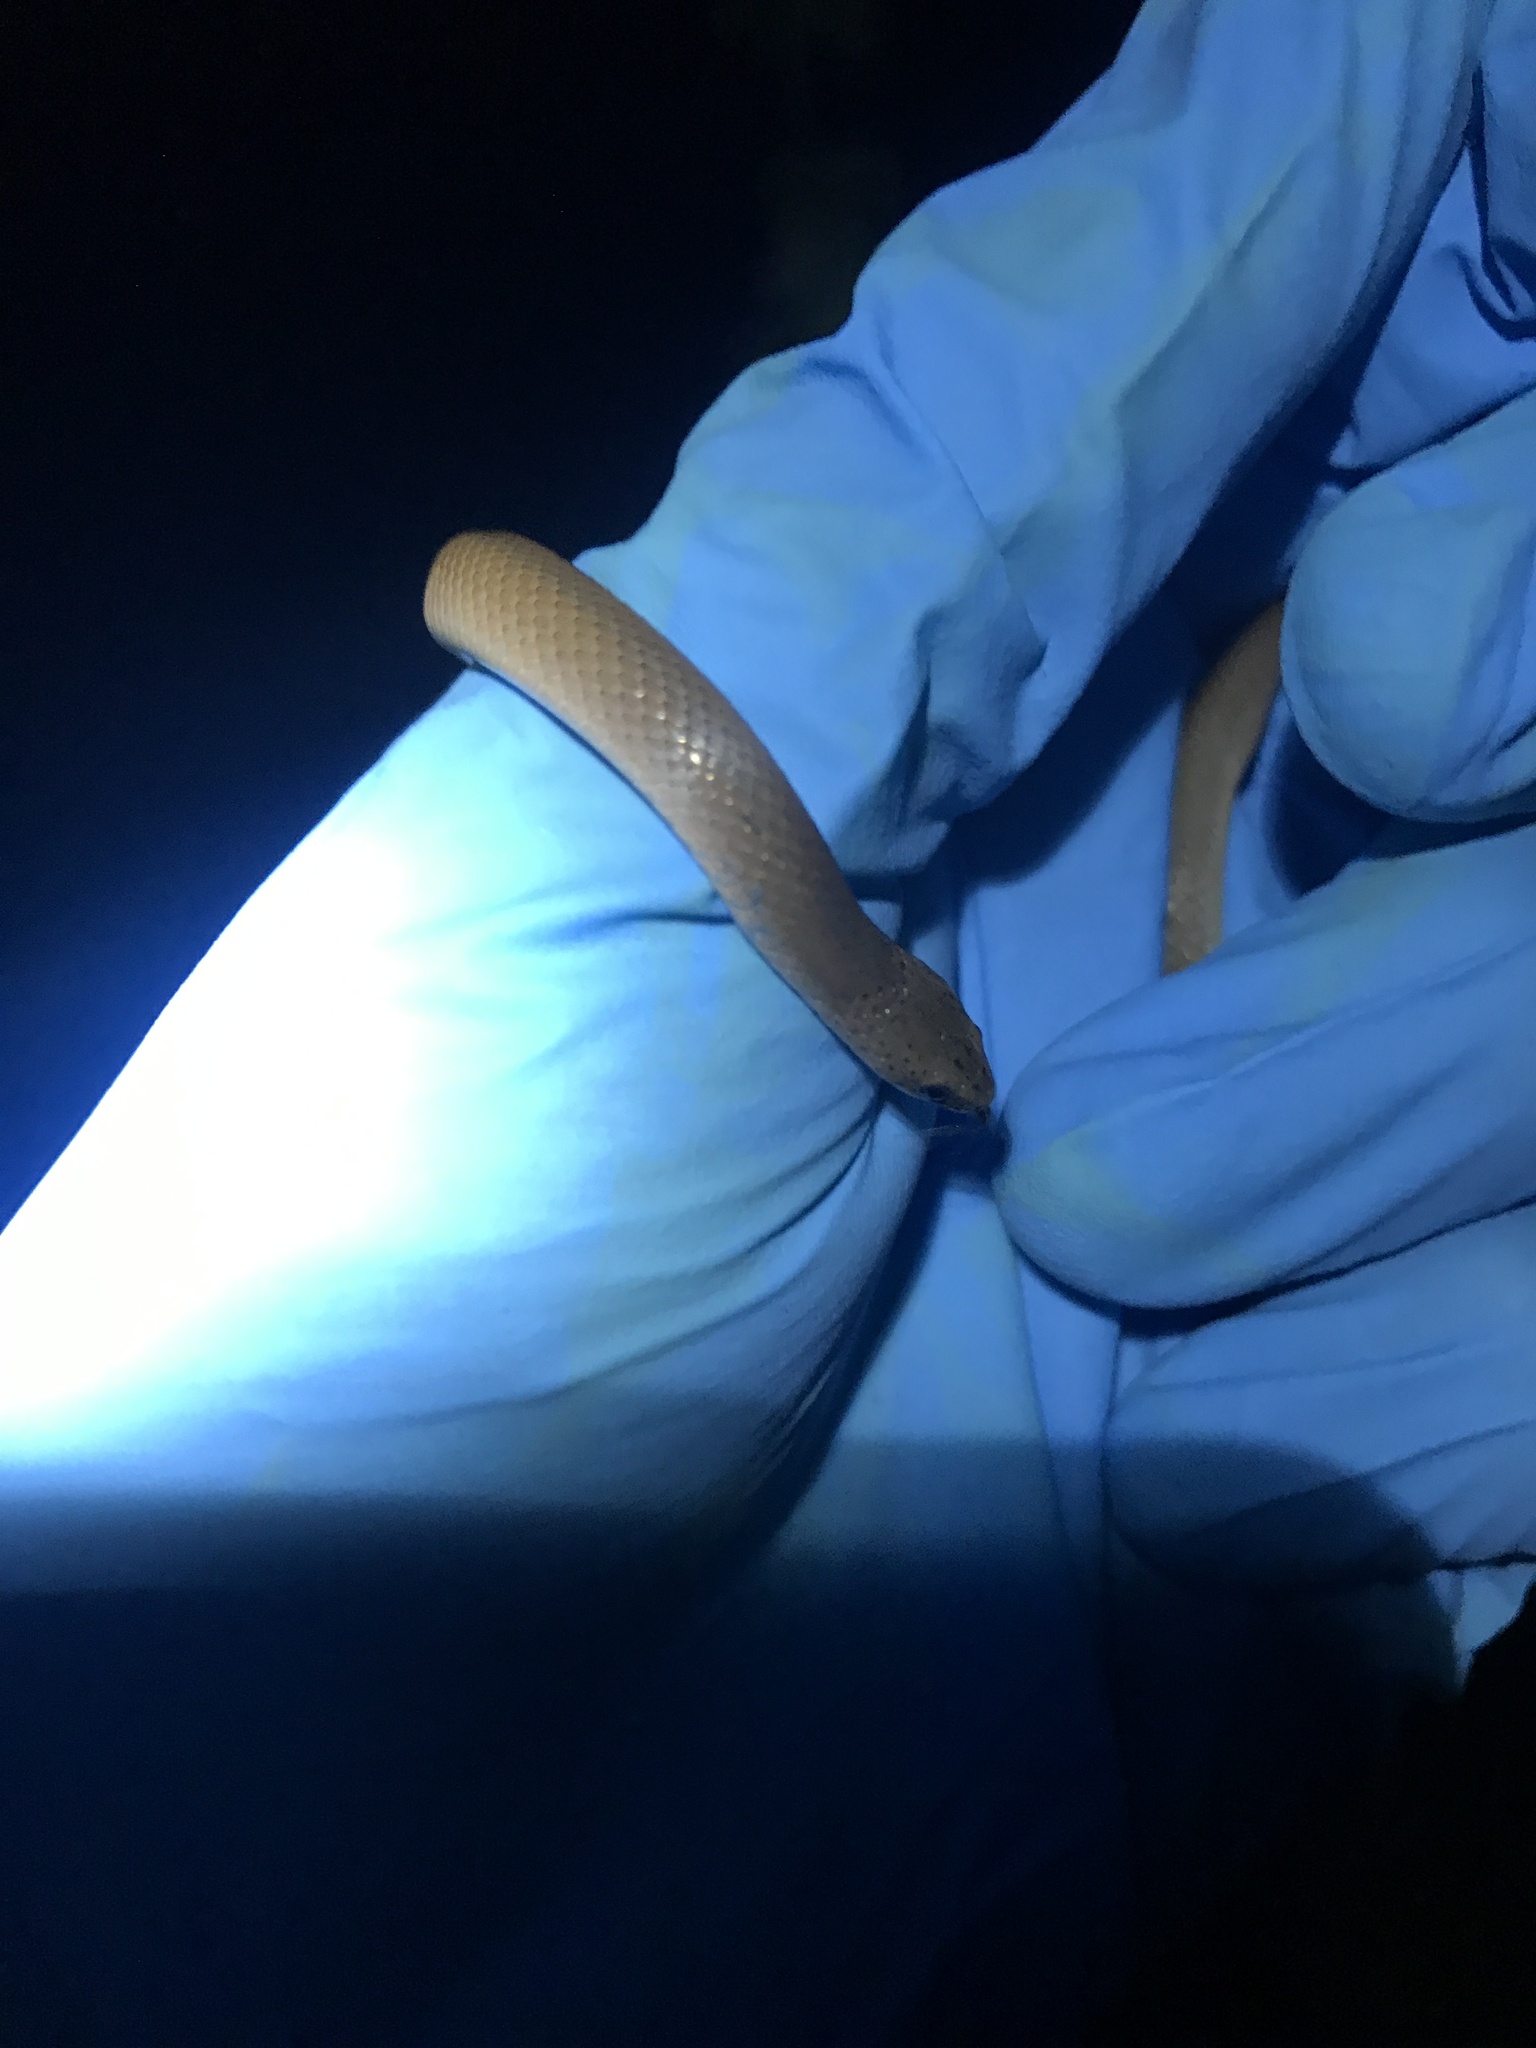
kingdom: Animalia
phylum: Chordata
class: Squamata
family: Colubridae
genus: Virginia
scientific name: Virginia valeriae
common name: Smooth earth snake
